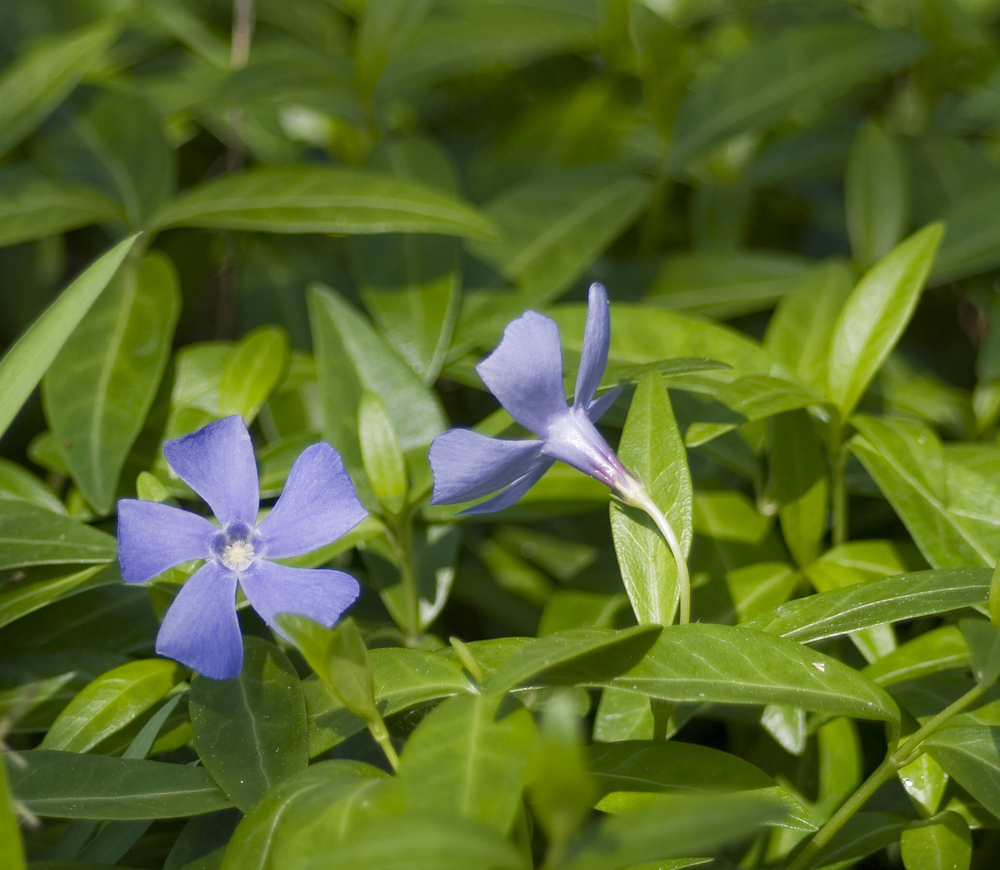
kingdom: Plantae
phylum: Tracheophyta
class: Magnoliopsida
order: Gentianales
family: Apocynaceae
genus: Vinca
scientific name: Vinca minor
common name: Lesser periwinkle
